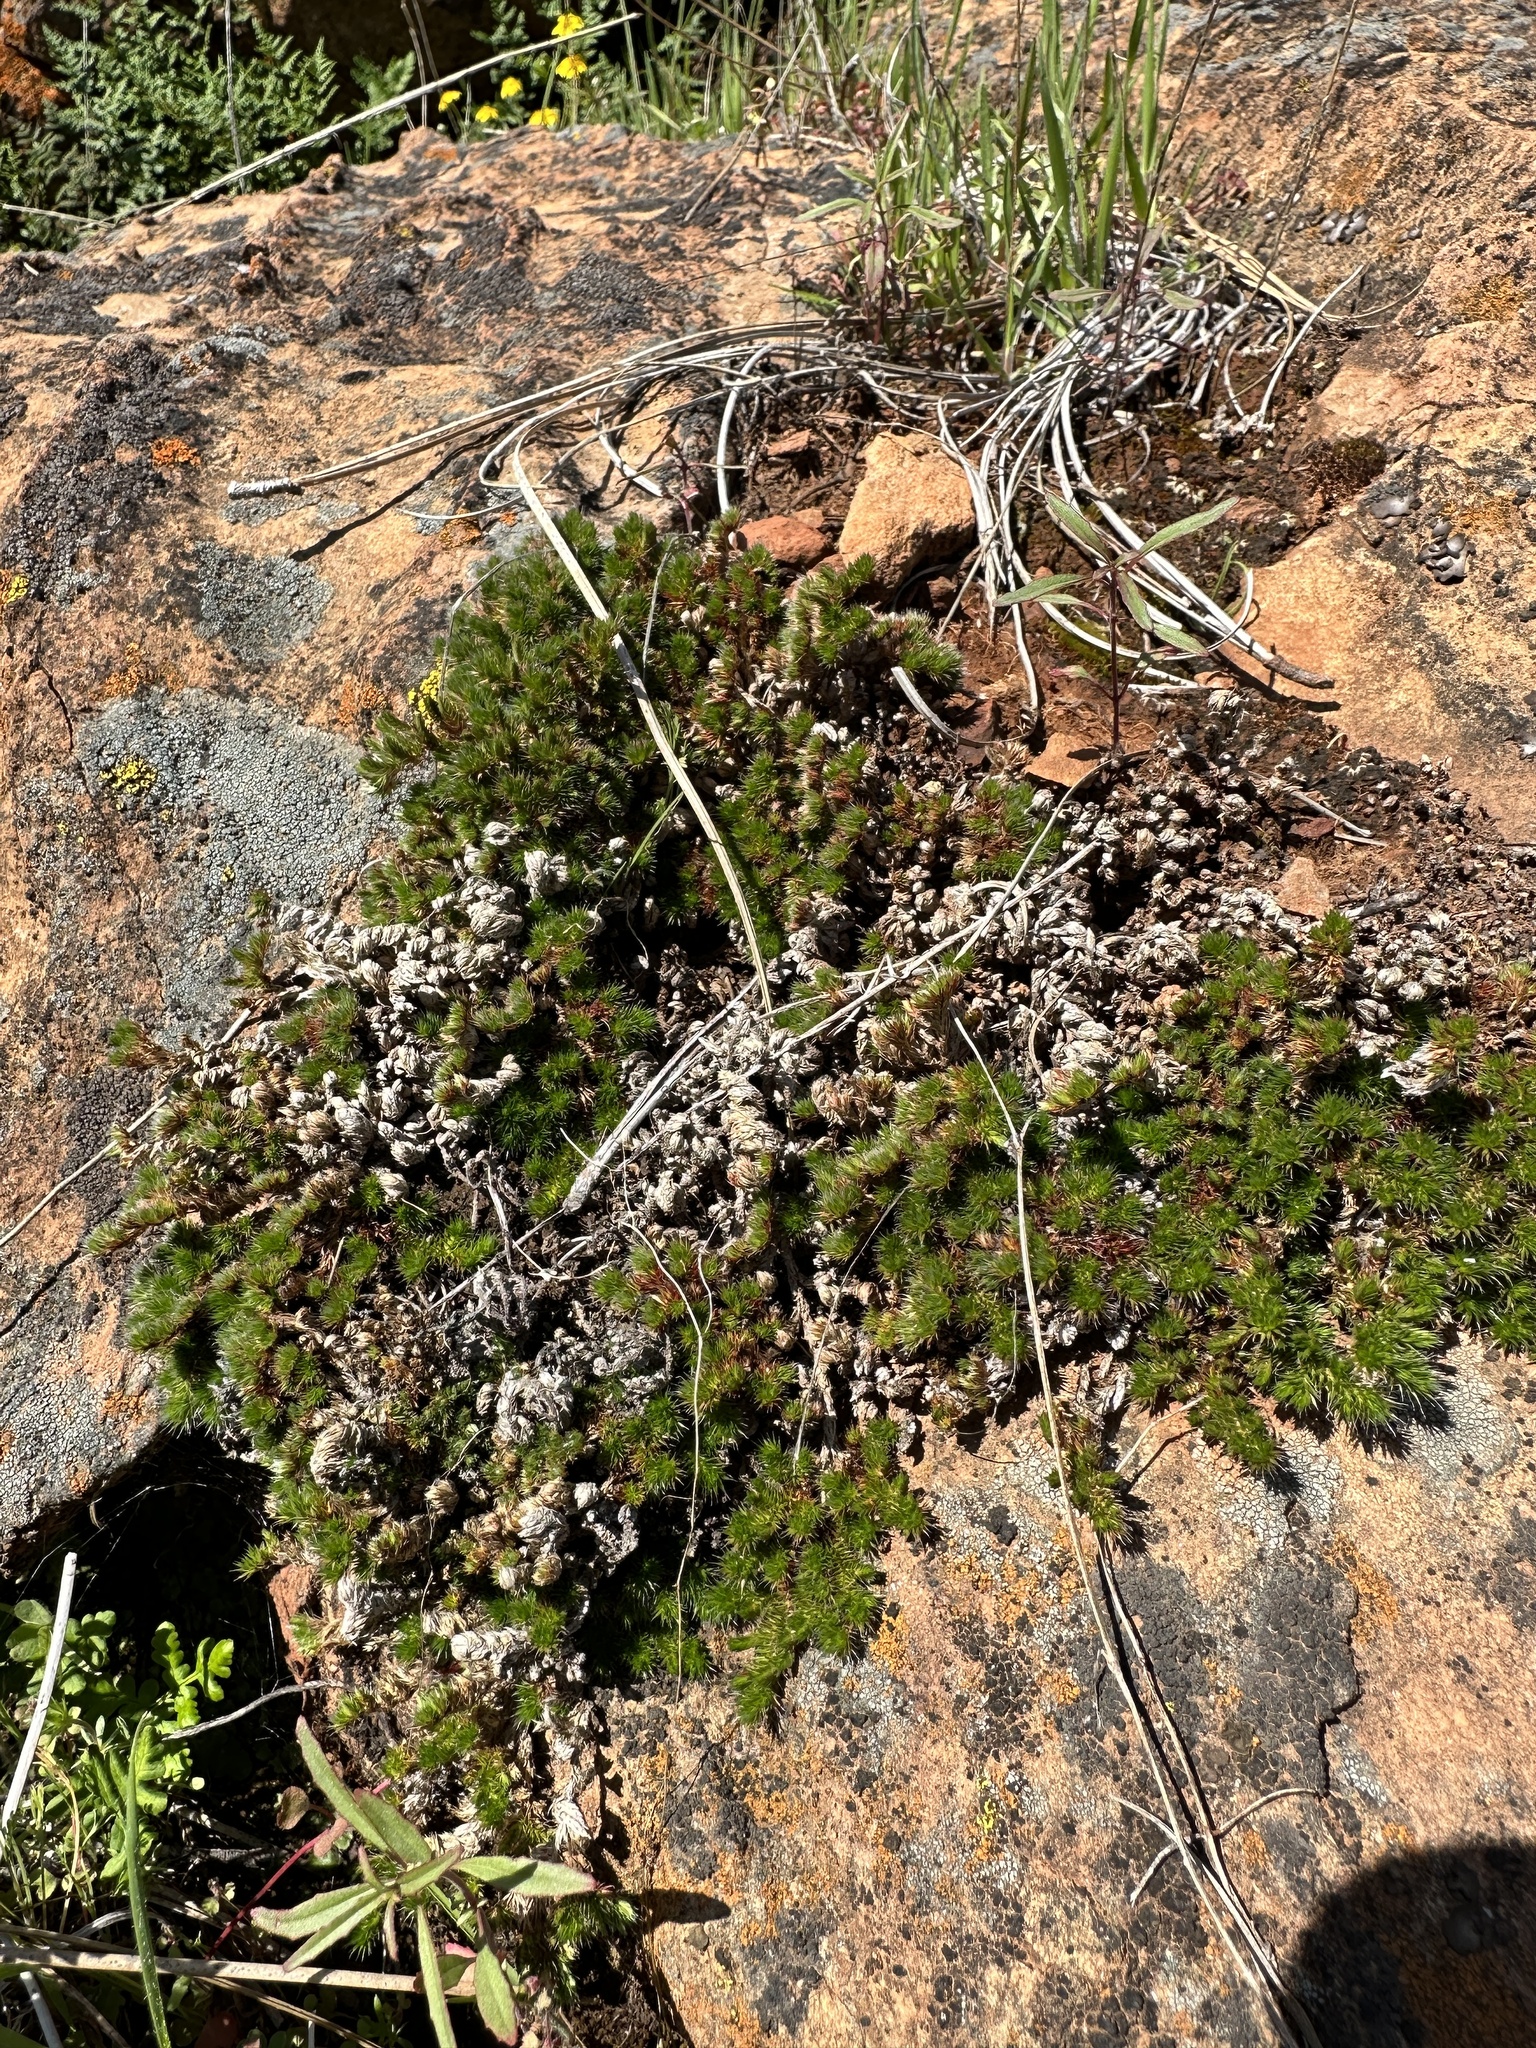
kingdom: Plantae
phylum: Tracheophyta
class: Lycopodiopsida
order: Selaginellales
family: Selaginellaceae
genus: Selaginella
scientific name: Selaginella hansenii
